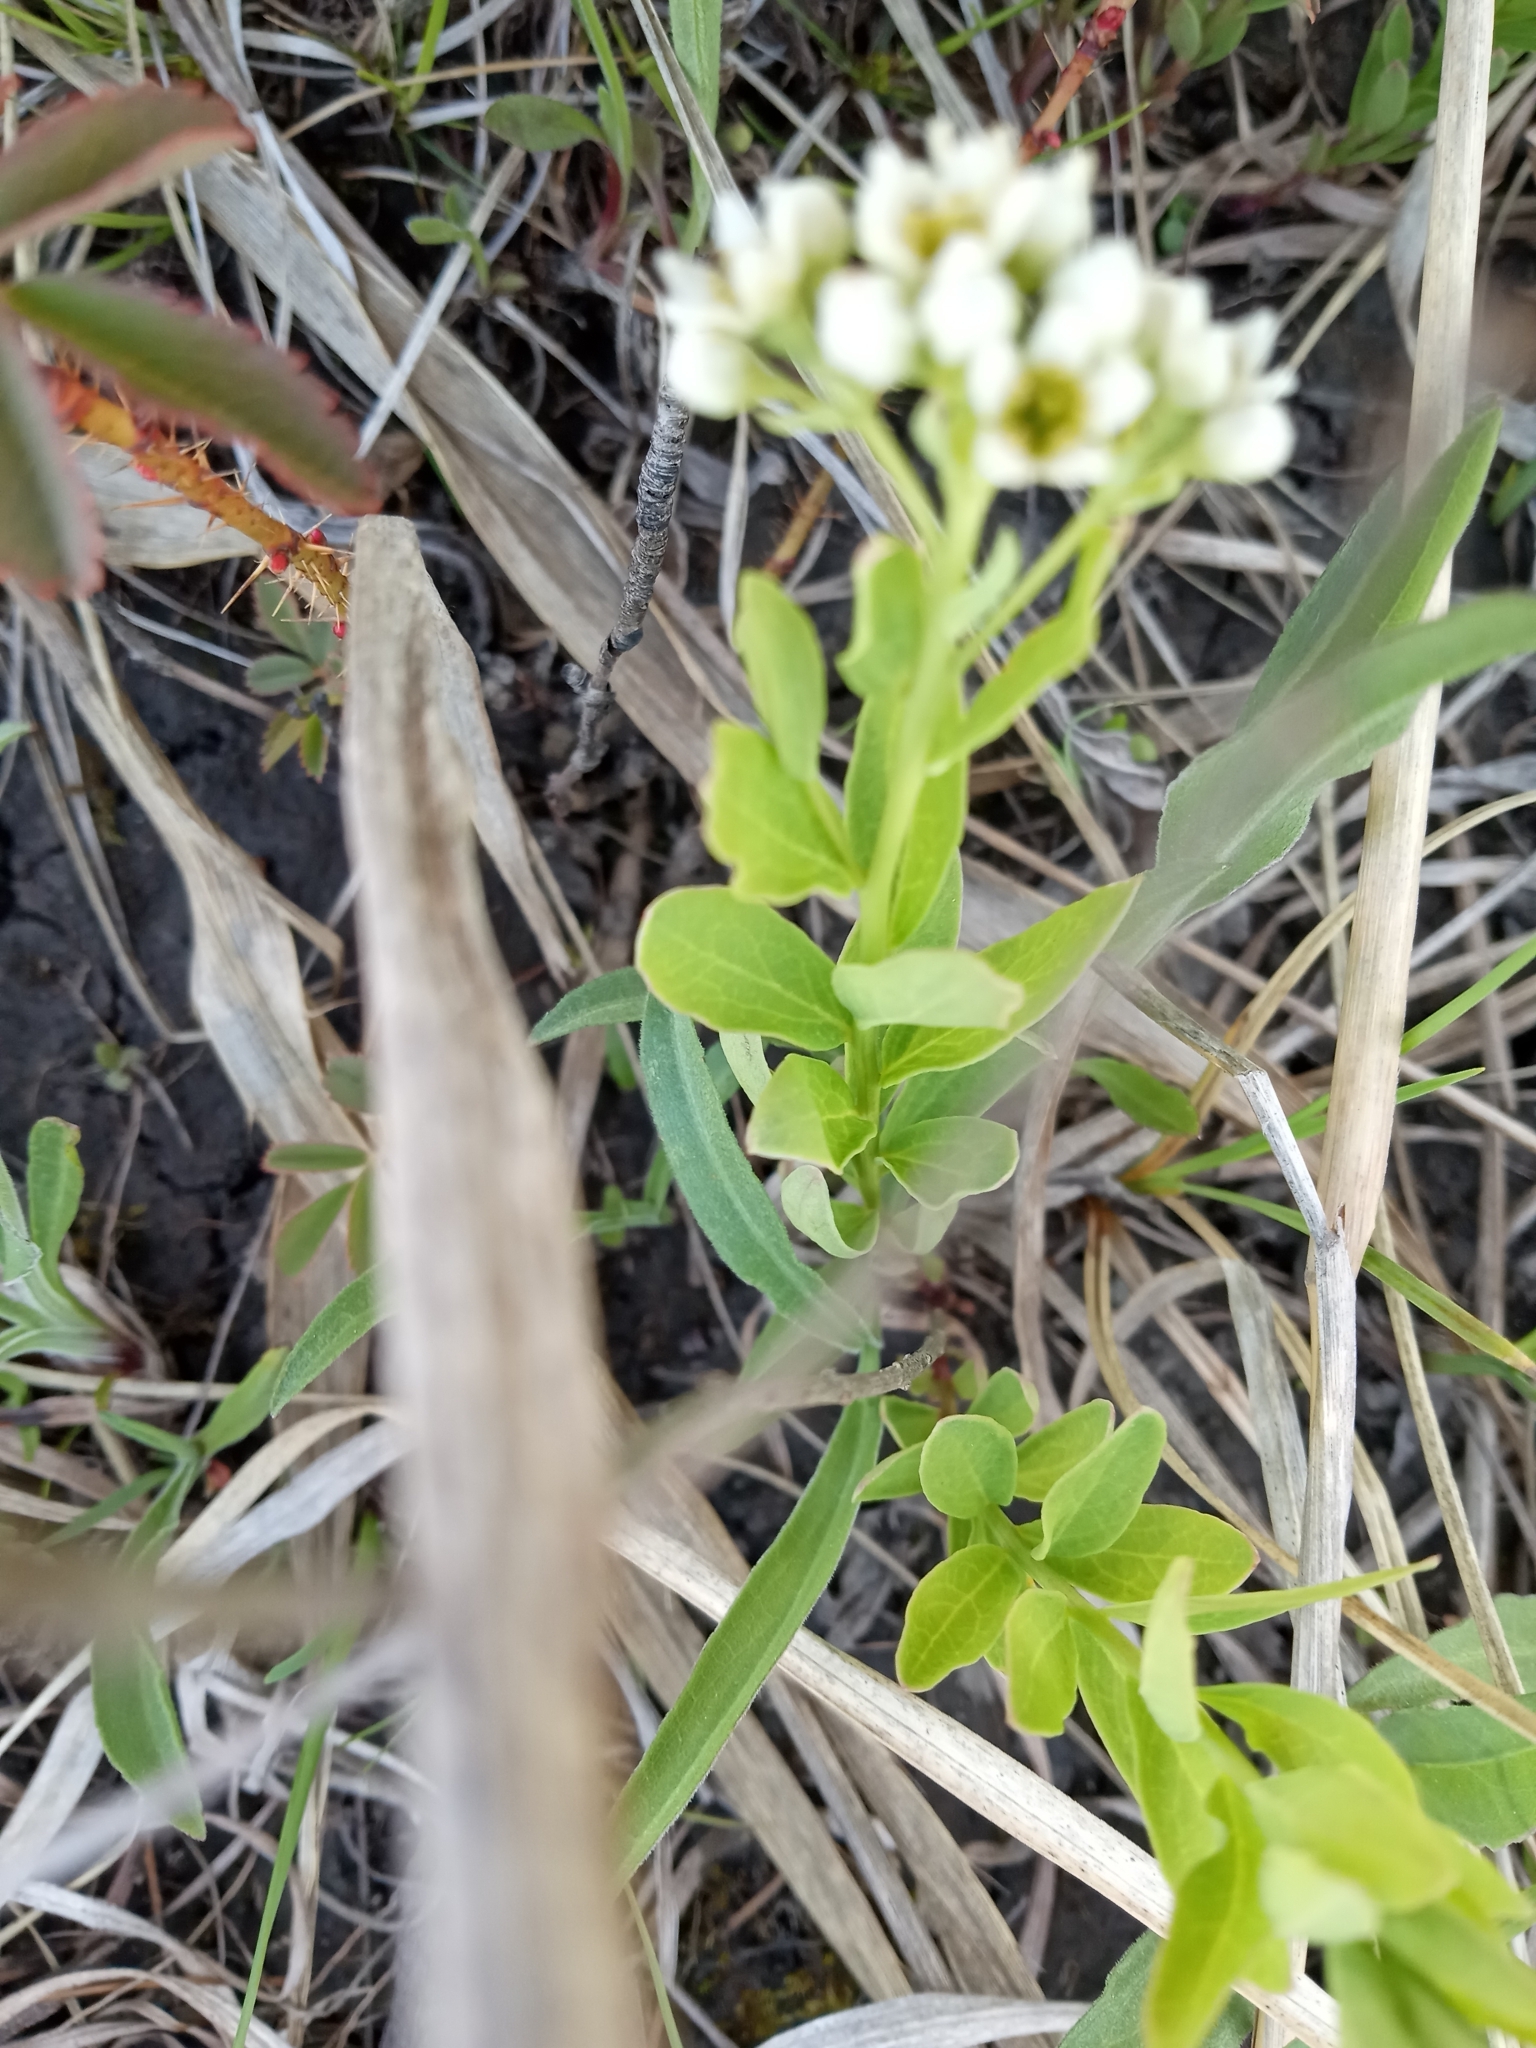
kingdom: Plantae
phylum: Tracheophyta
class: Magnoliopsida
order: Santalales
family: Comandraceae
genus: Comandra
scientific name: Comandra umbellata
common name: Bastard toadflax
